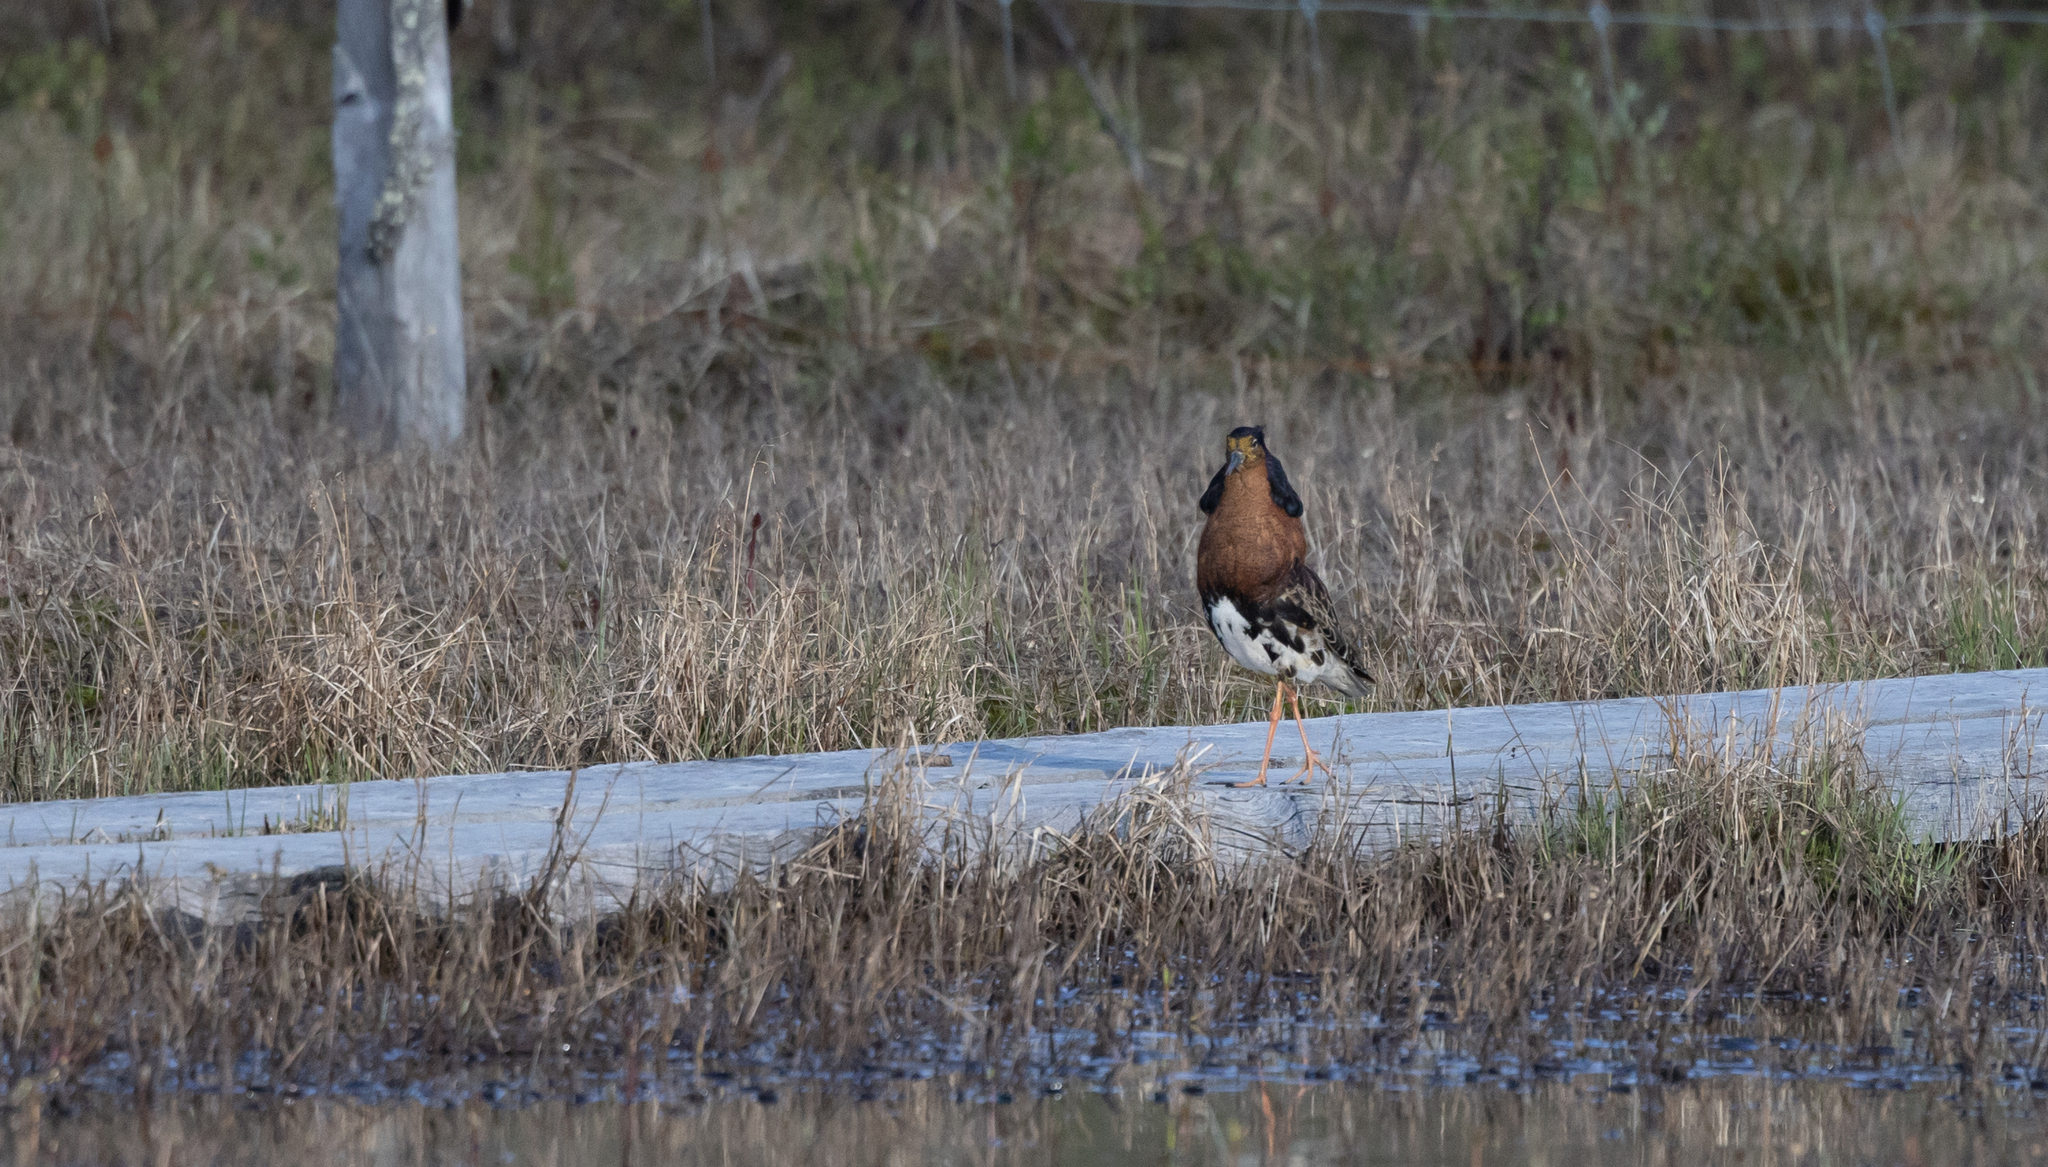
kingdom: Animalia
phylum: Chordata
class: Aves
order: Charadriiformes
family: Scolopacidae
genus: Calidris
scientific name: Calidris pugnax
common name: Ruff
